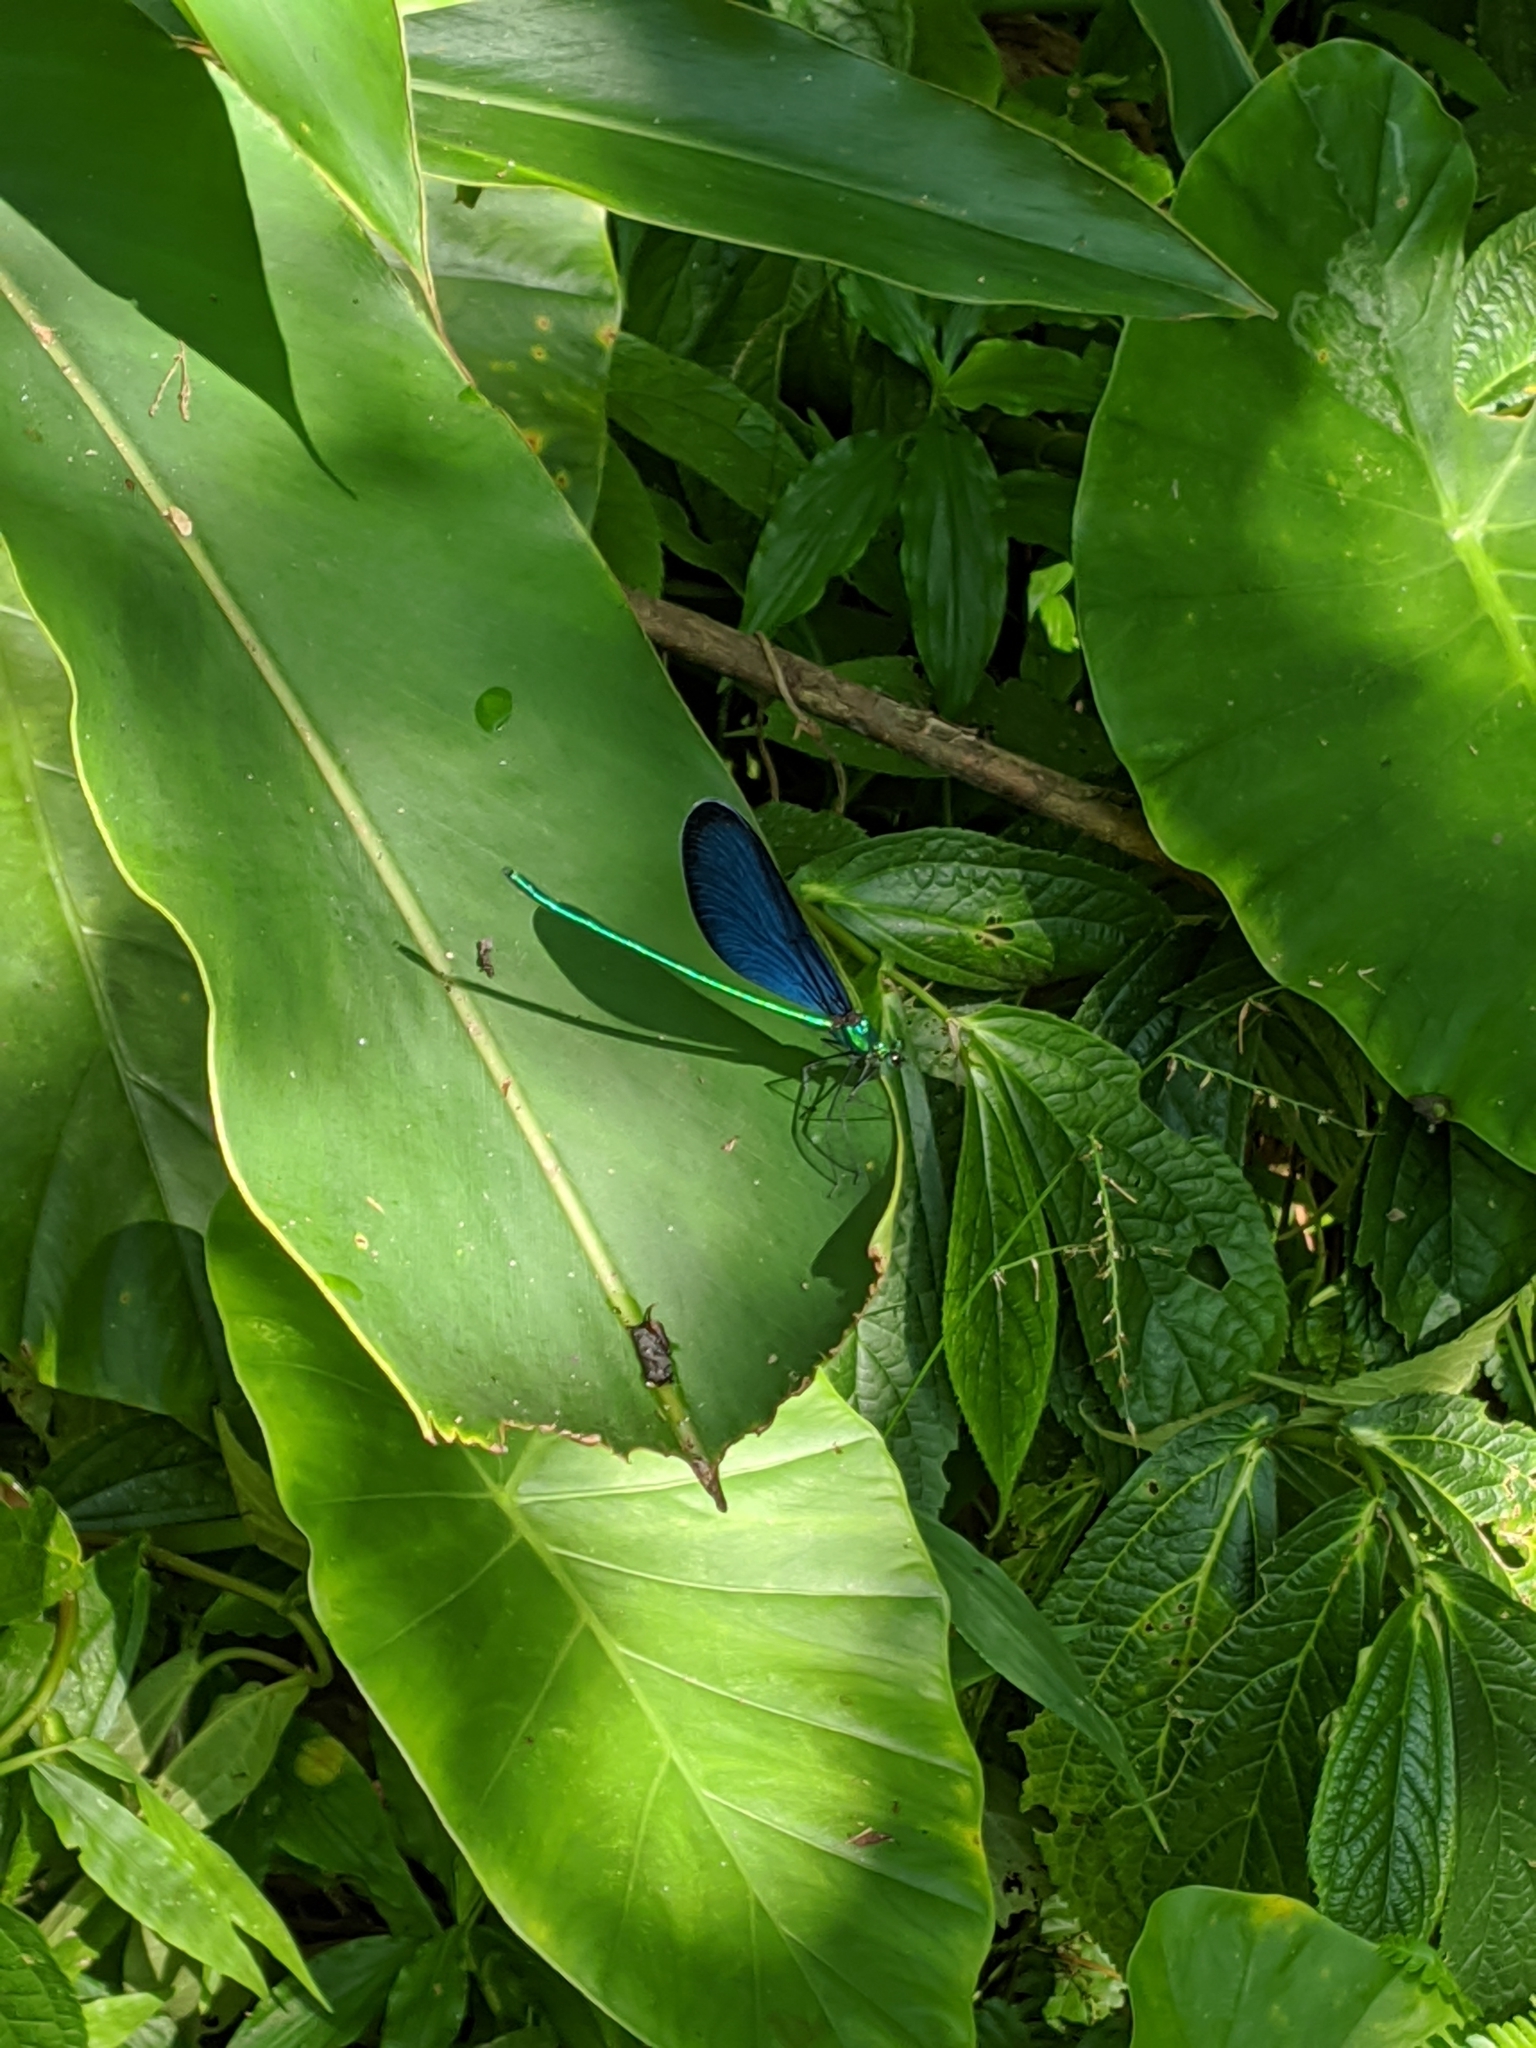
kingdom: Animalia
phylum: Arthropoda
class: Insecta
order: Odonata
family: Calopterygidae
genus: Matrona
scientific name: Matrona cyanoptera
